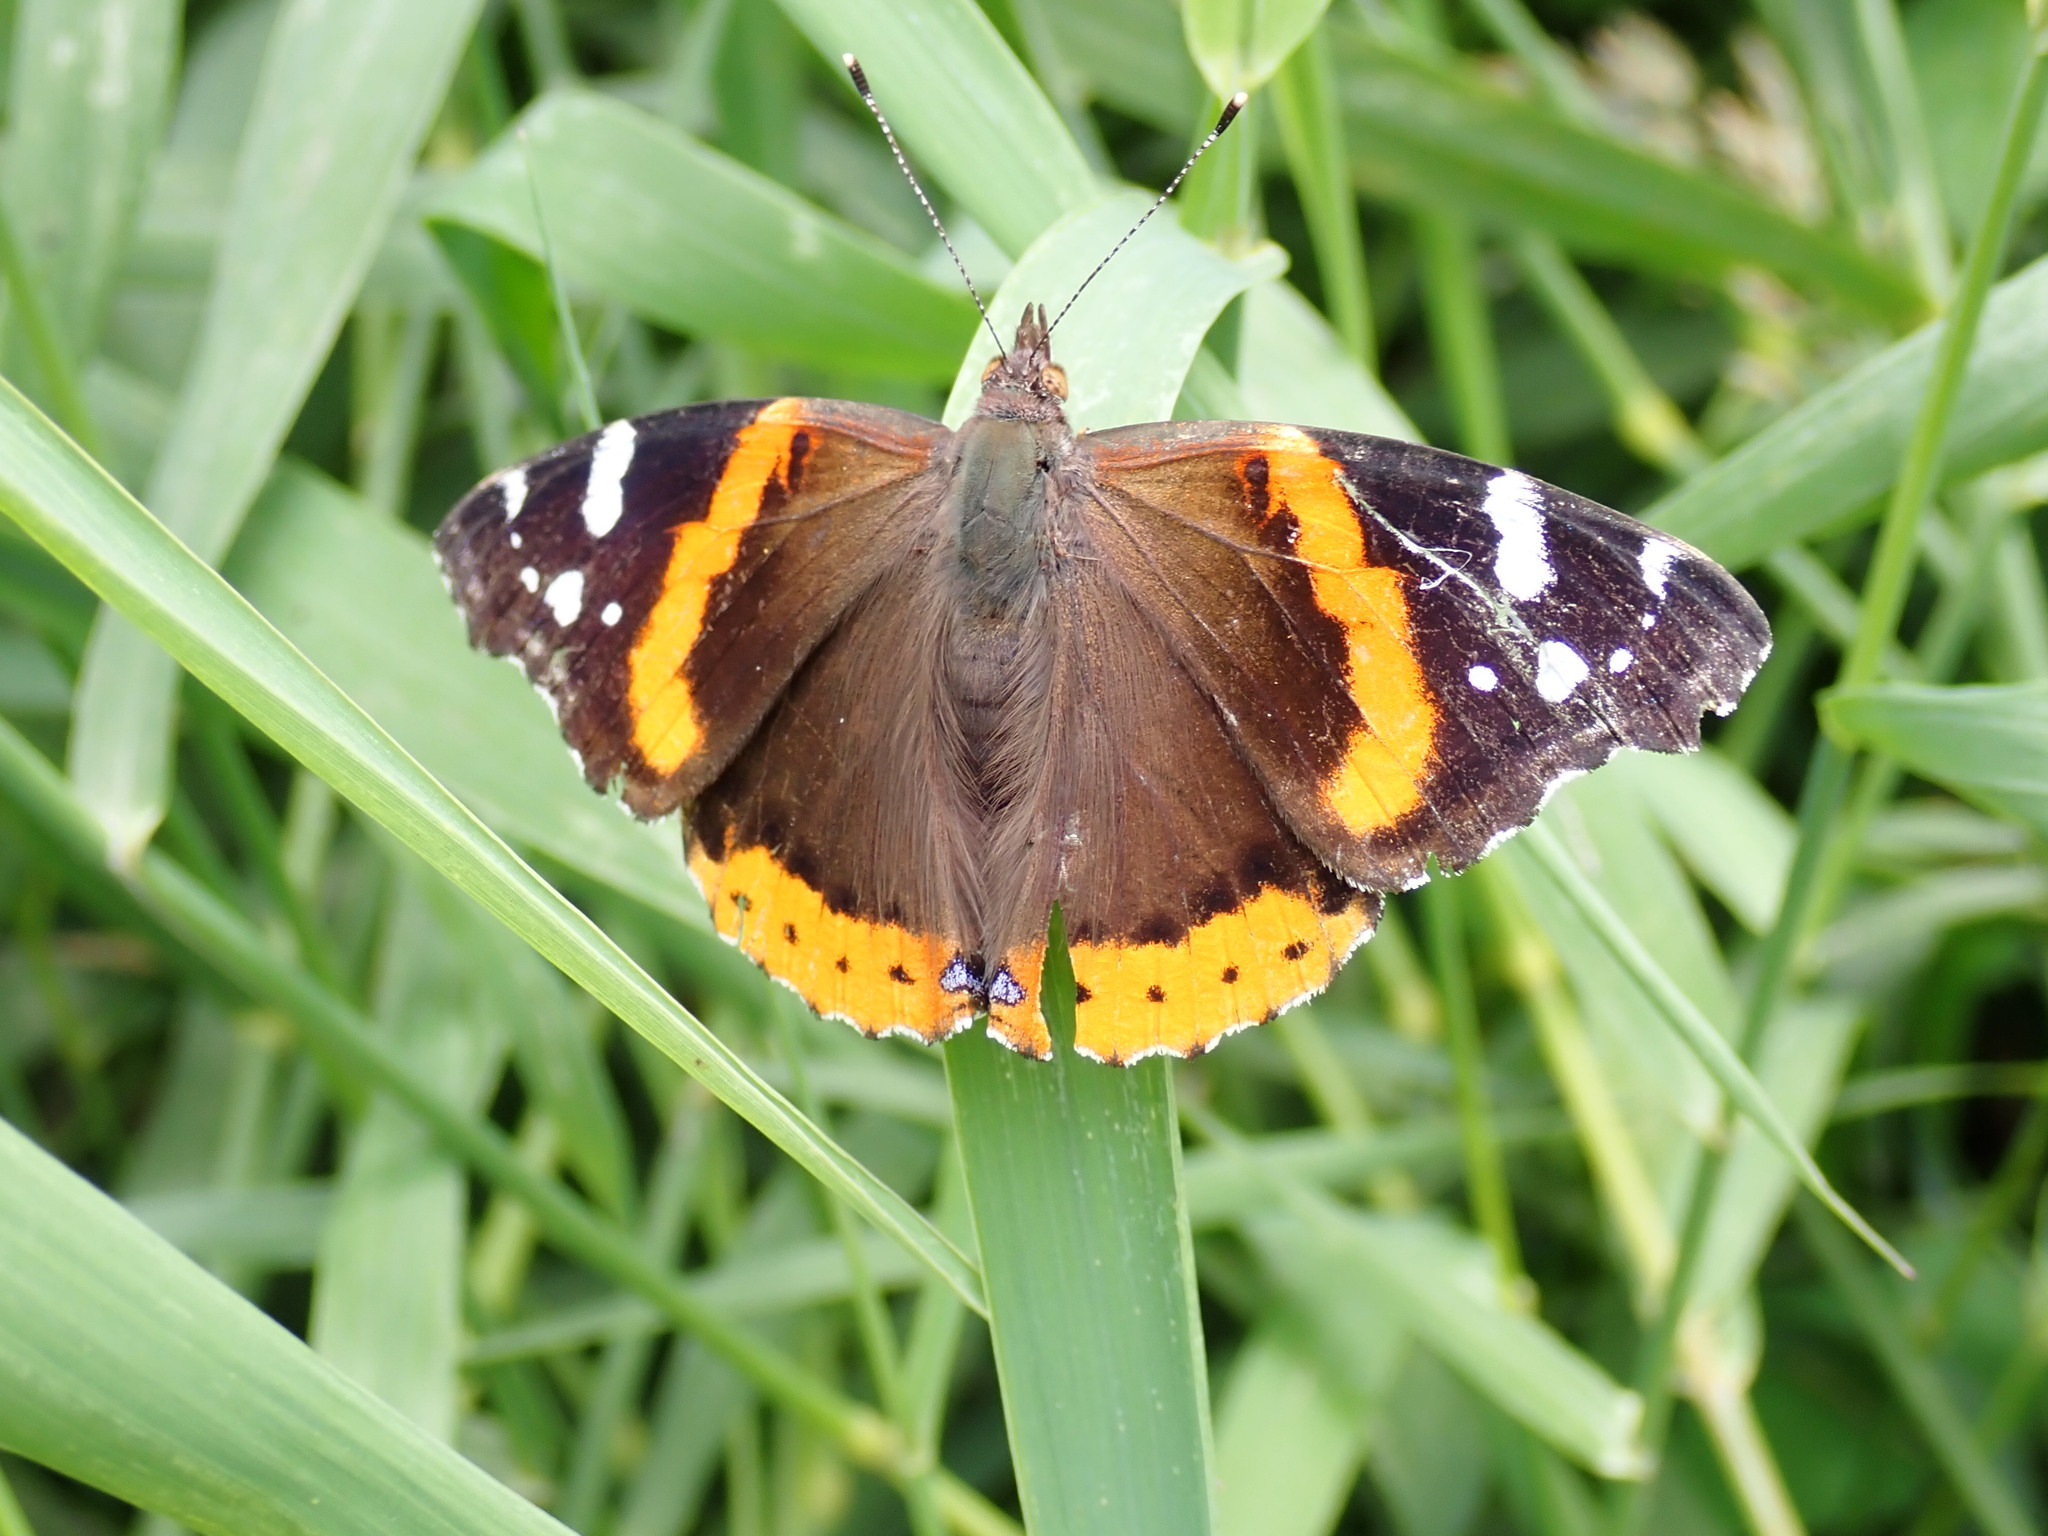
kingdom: Animalia
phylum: Arthropoda
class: Insecta
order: Lepidoptera
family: Nymphalidae
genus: Vanessa
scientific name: Vanessa atalanta
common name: Red admiral
